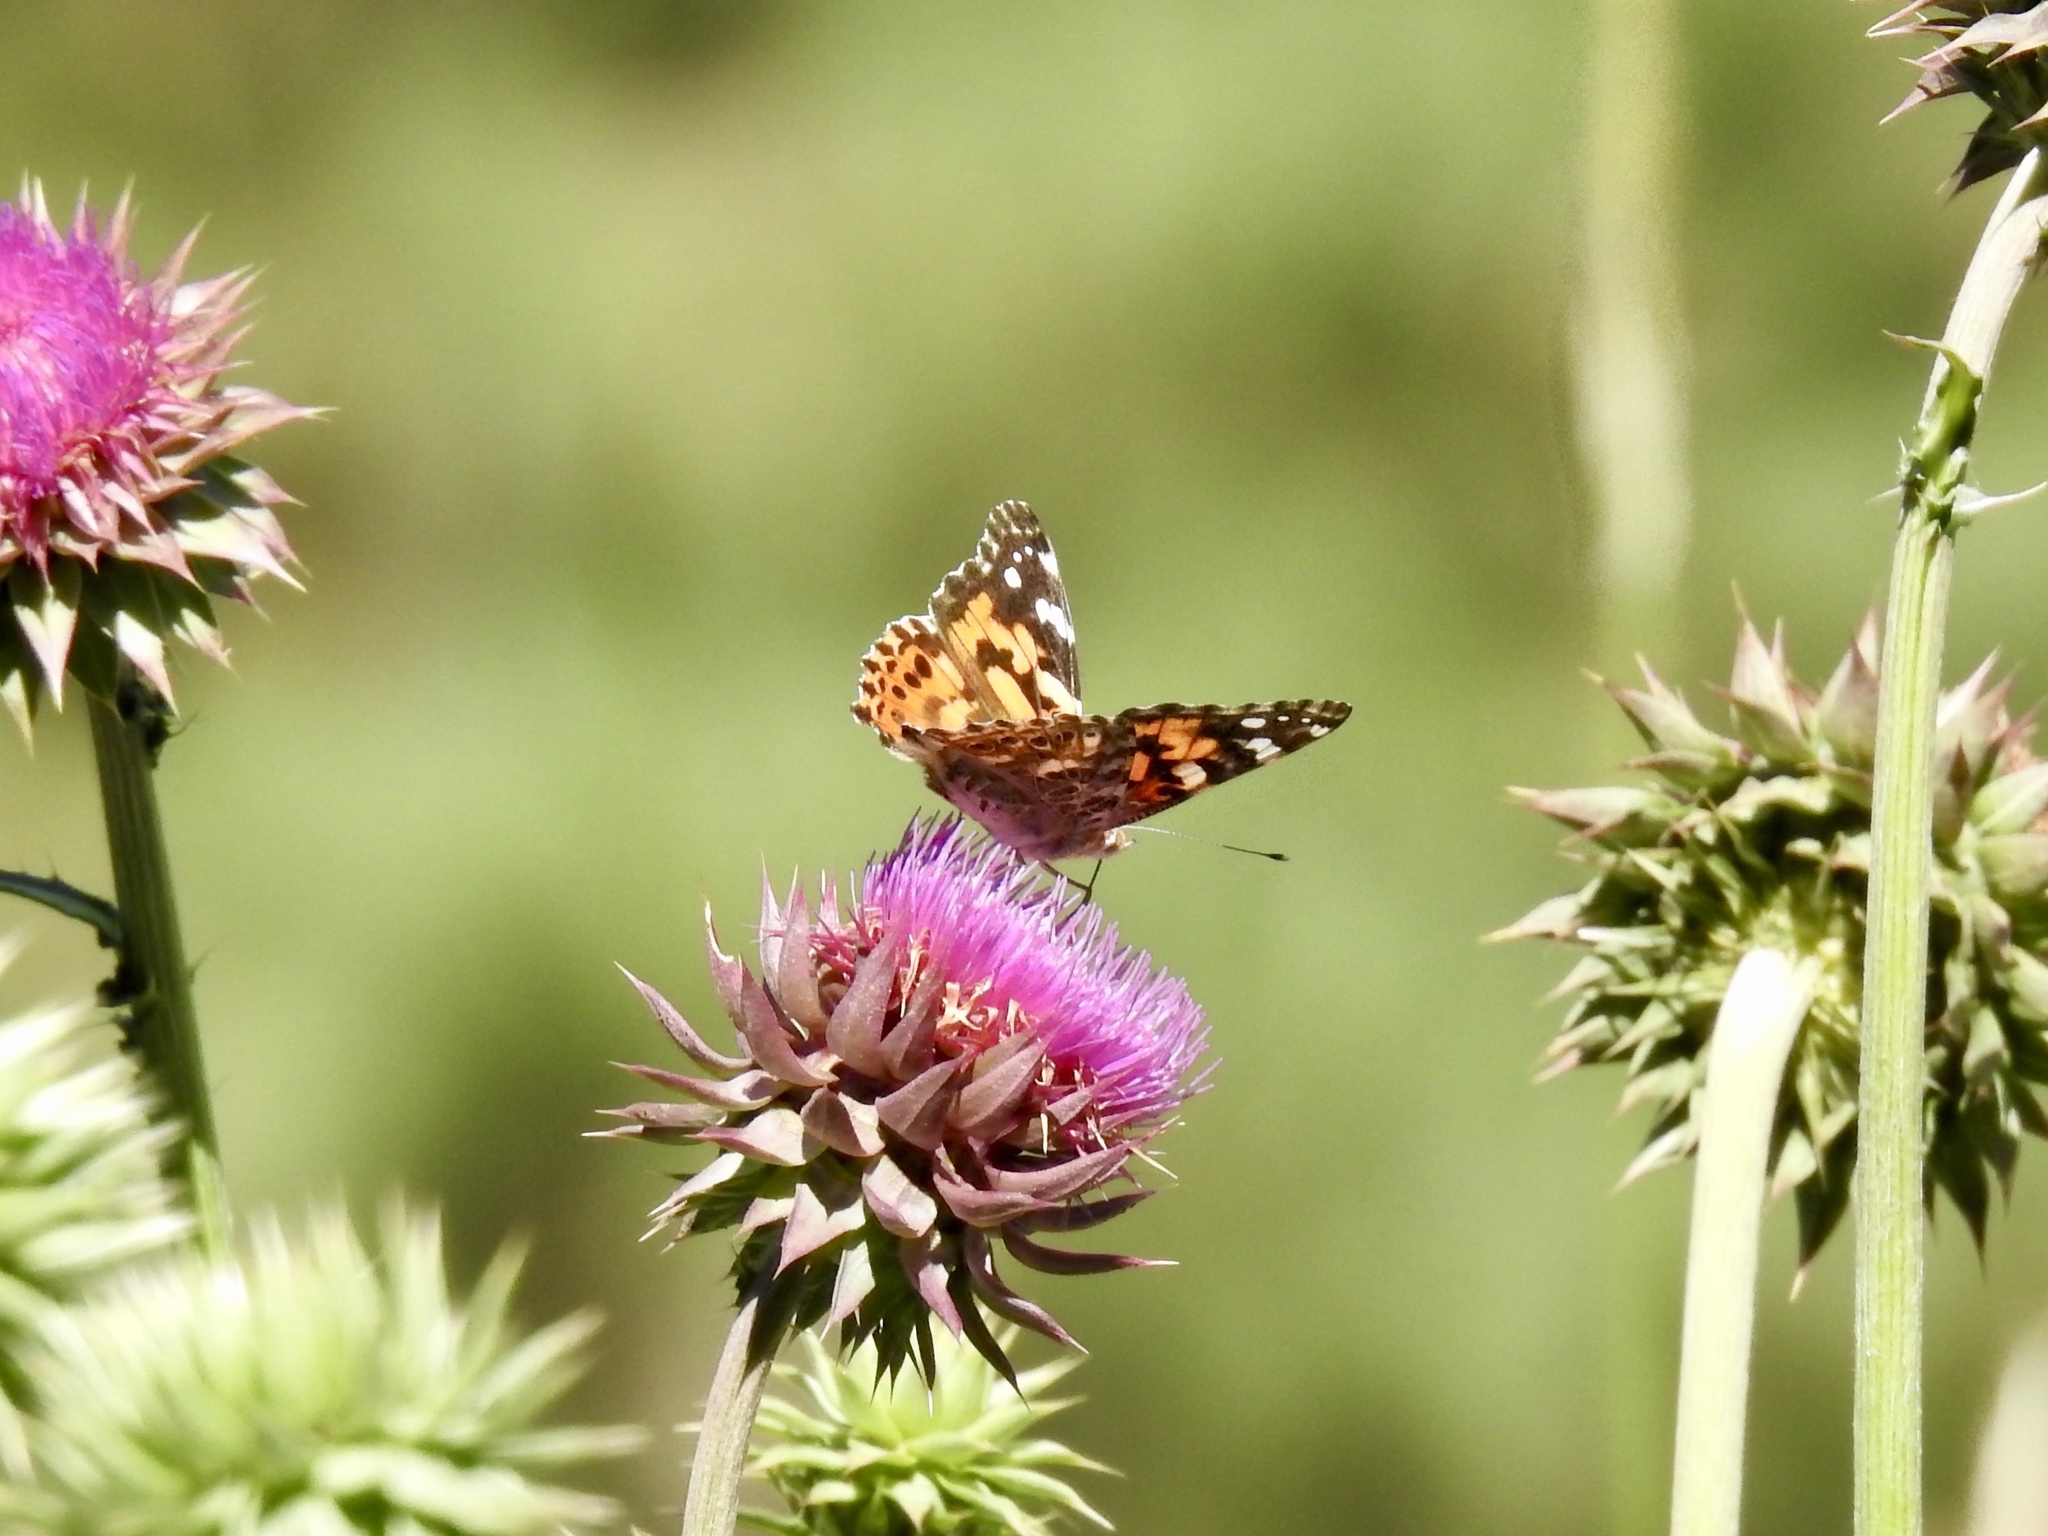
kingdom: Animalia
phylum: Arthropoda
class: Insecta
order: Lepidoptera
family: Nymphalidae
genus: Vanessa
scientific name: Vanessa cardui
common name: Painted lady
